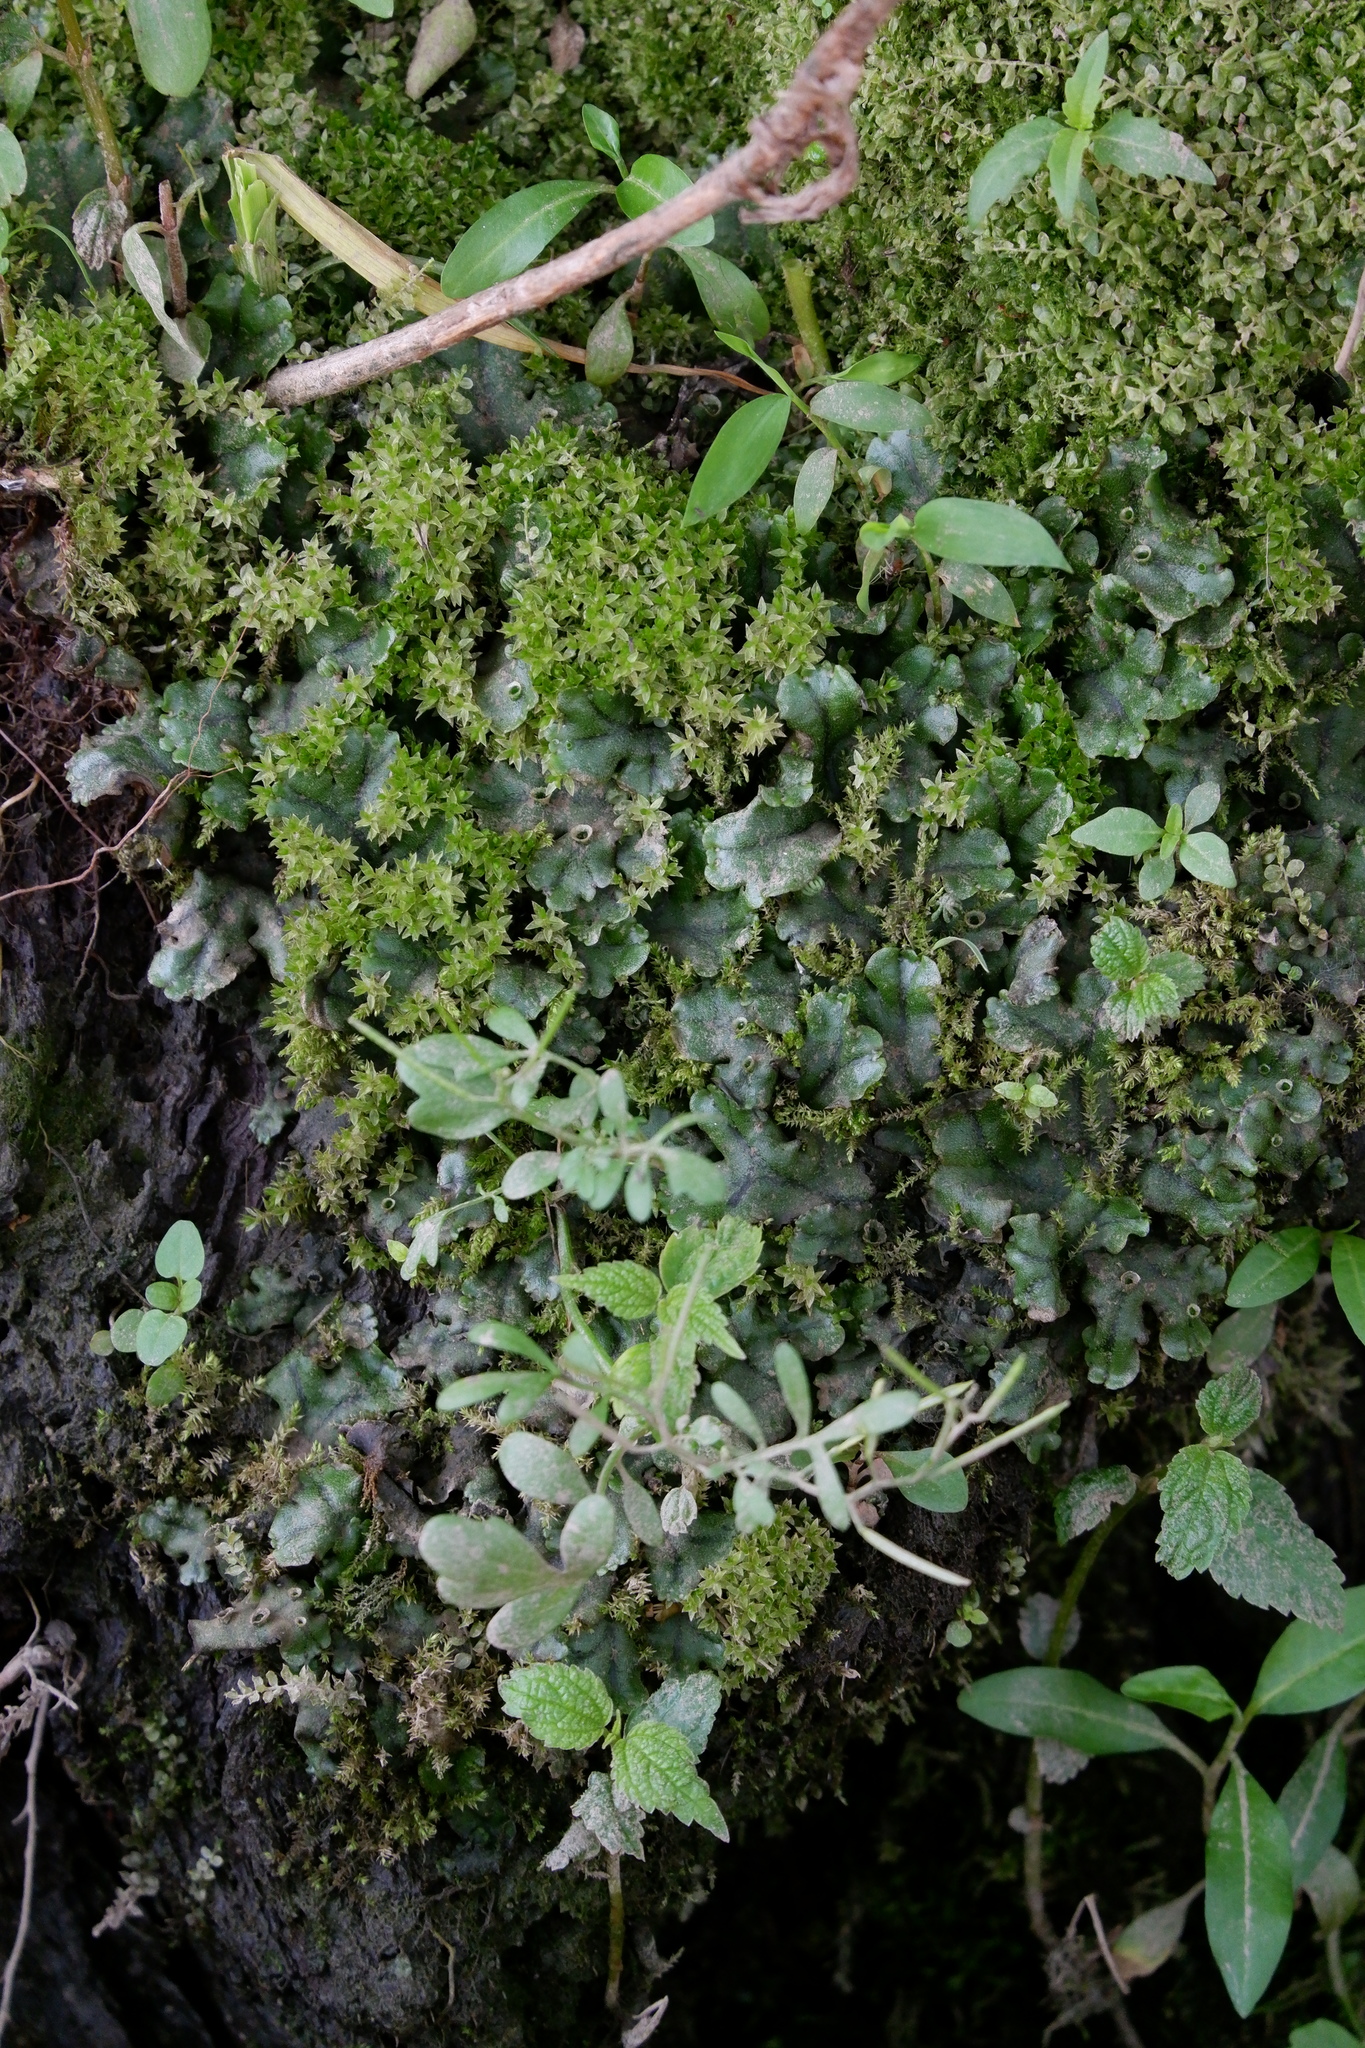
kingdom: Plantae
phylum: Marchantiophyta
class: Marchantiopsida
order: Marchantiales
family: Marchantiaceae
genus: Marchantia
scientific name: Marchantia polymorpha
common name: Common liverwort
